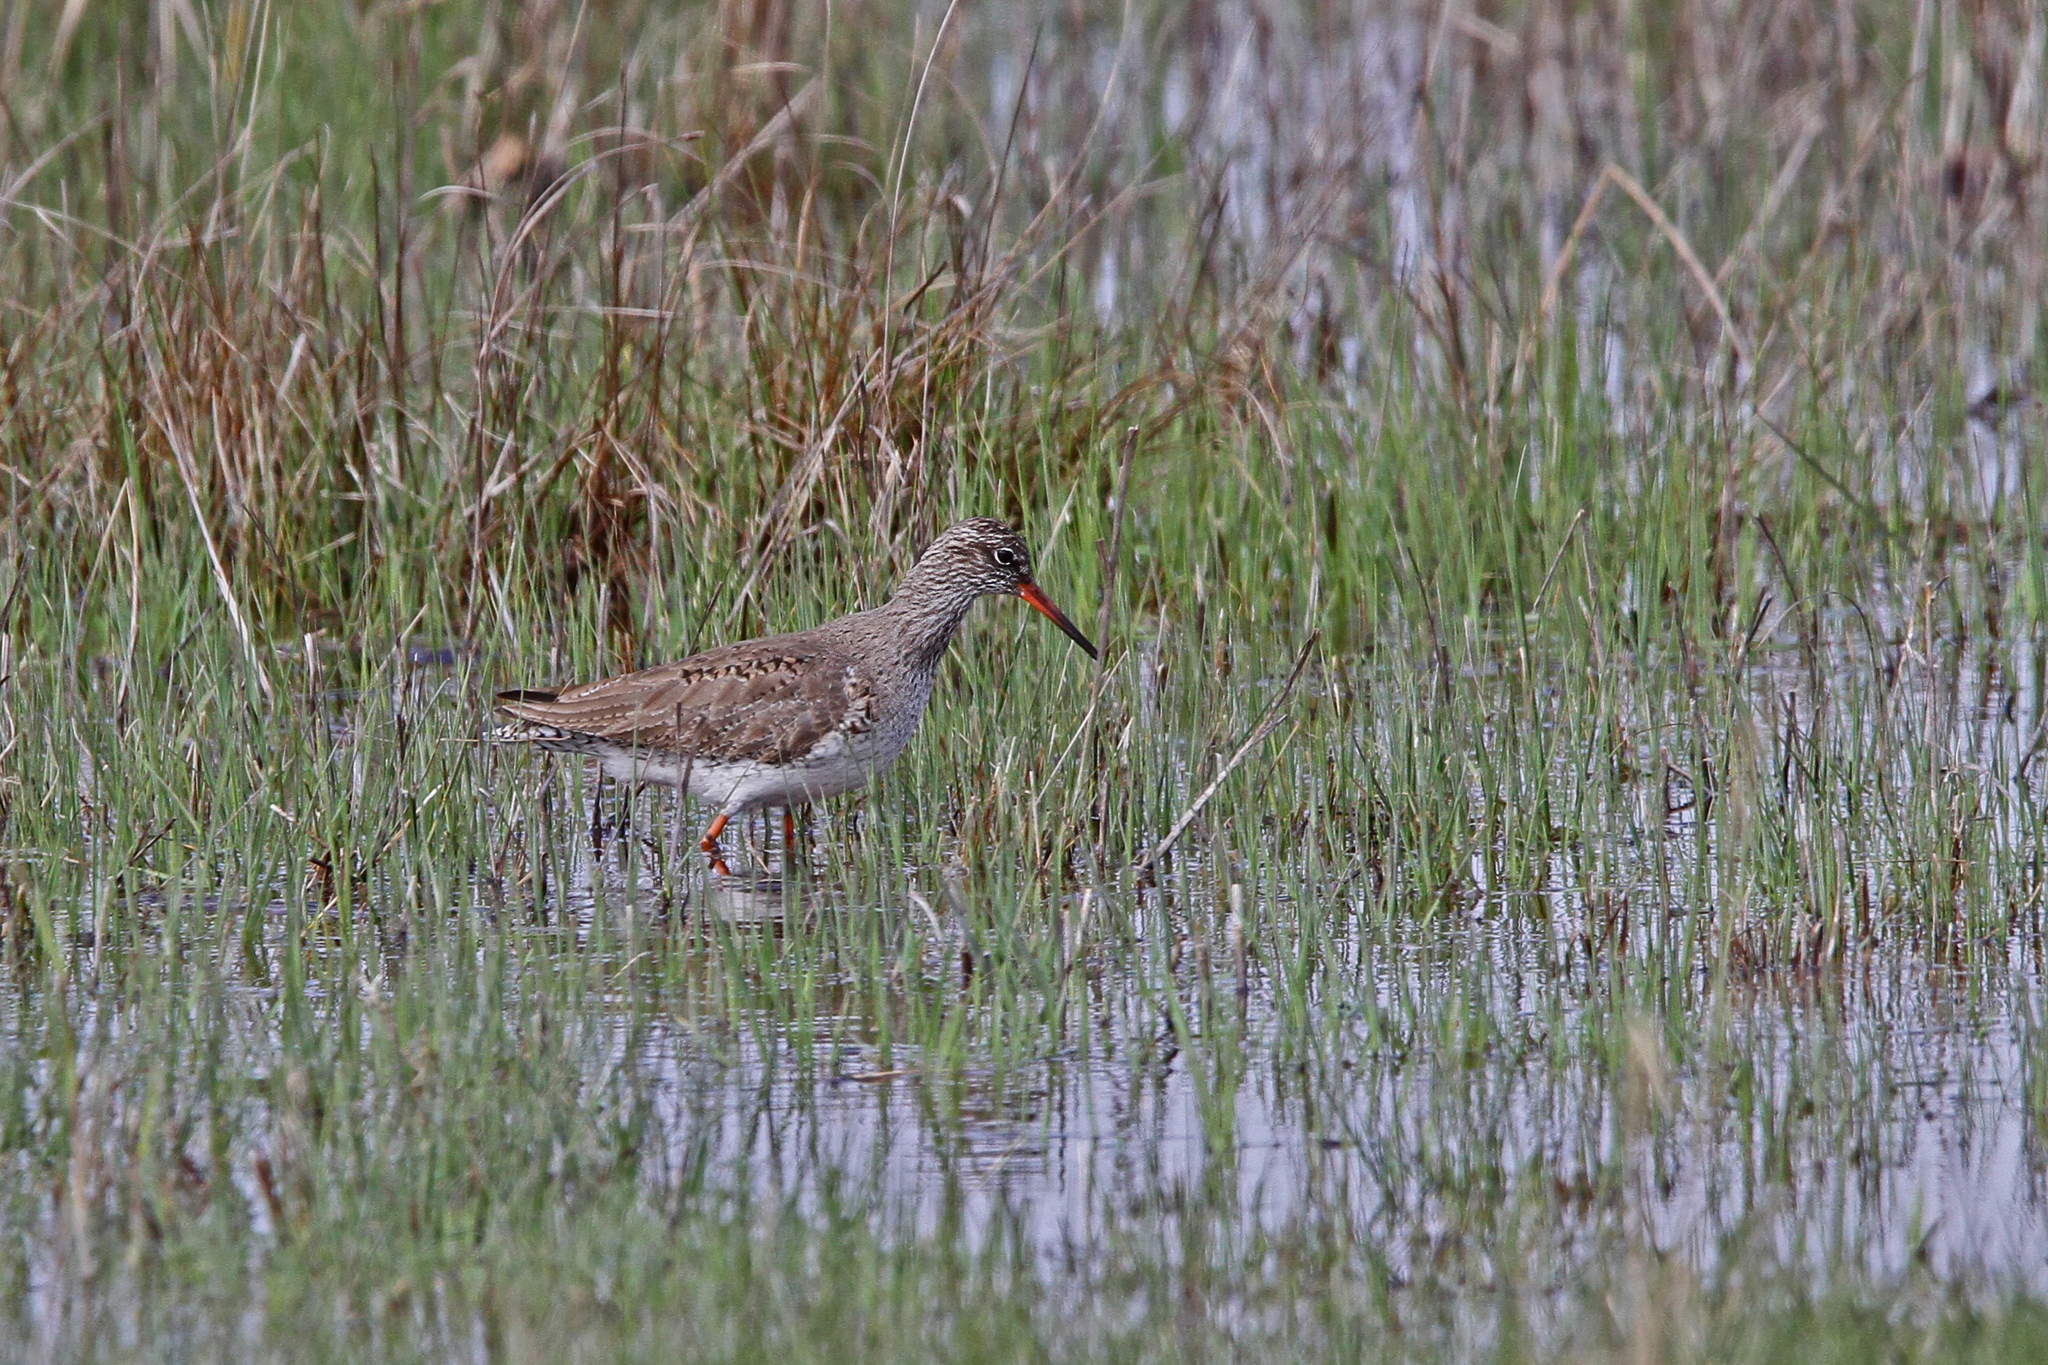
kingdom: Animalia
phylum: Chordata
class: Aves
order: Charadriiformes
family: Scolopacidae
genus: Tringa
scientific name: Tringa totanus
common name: Common redshank
